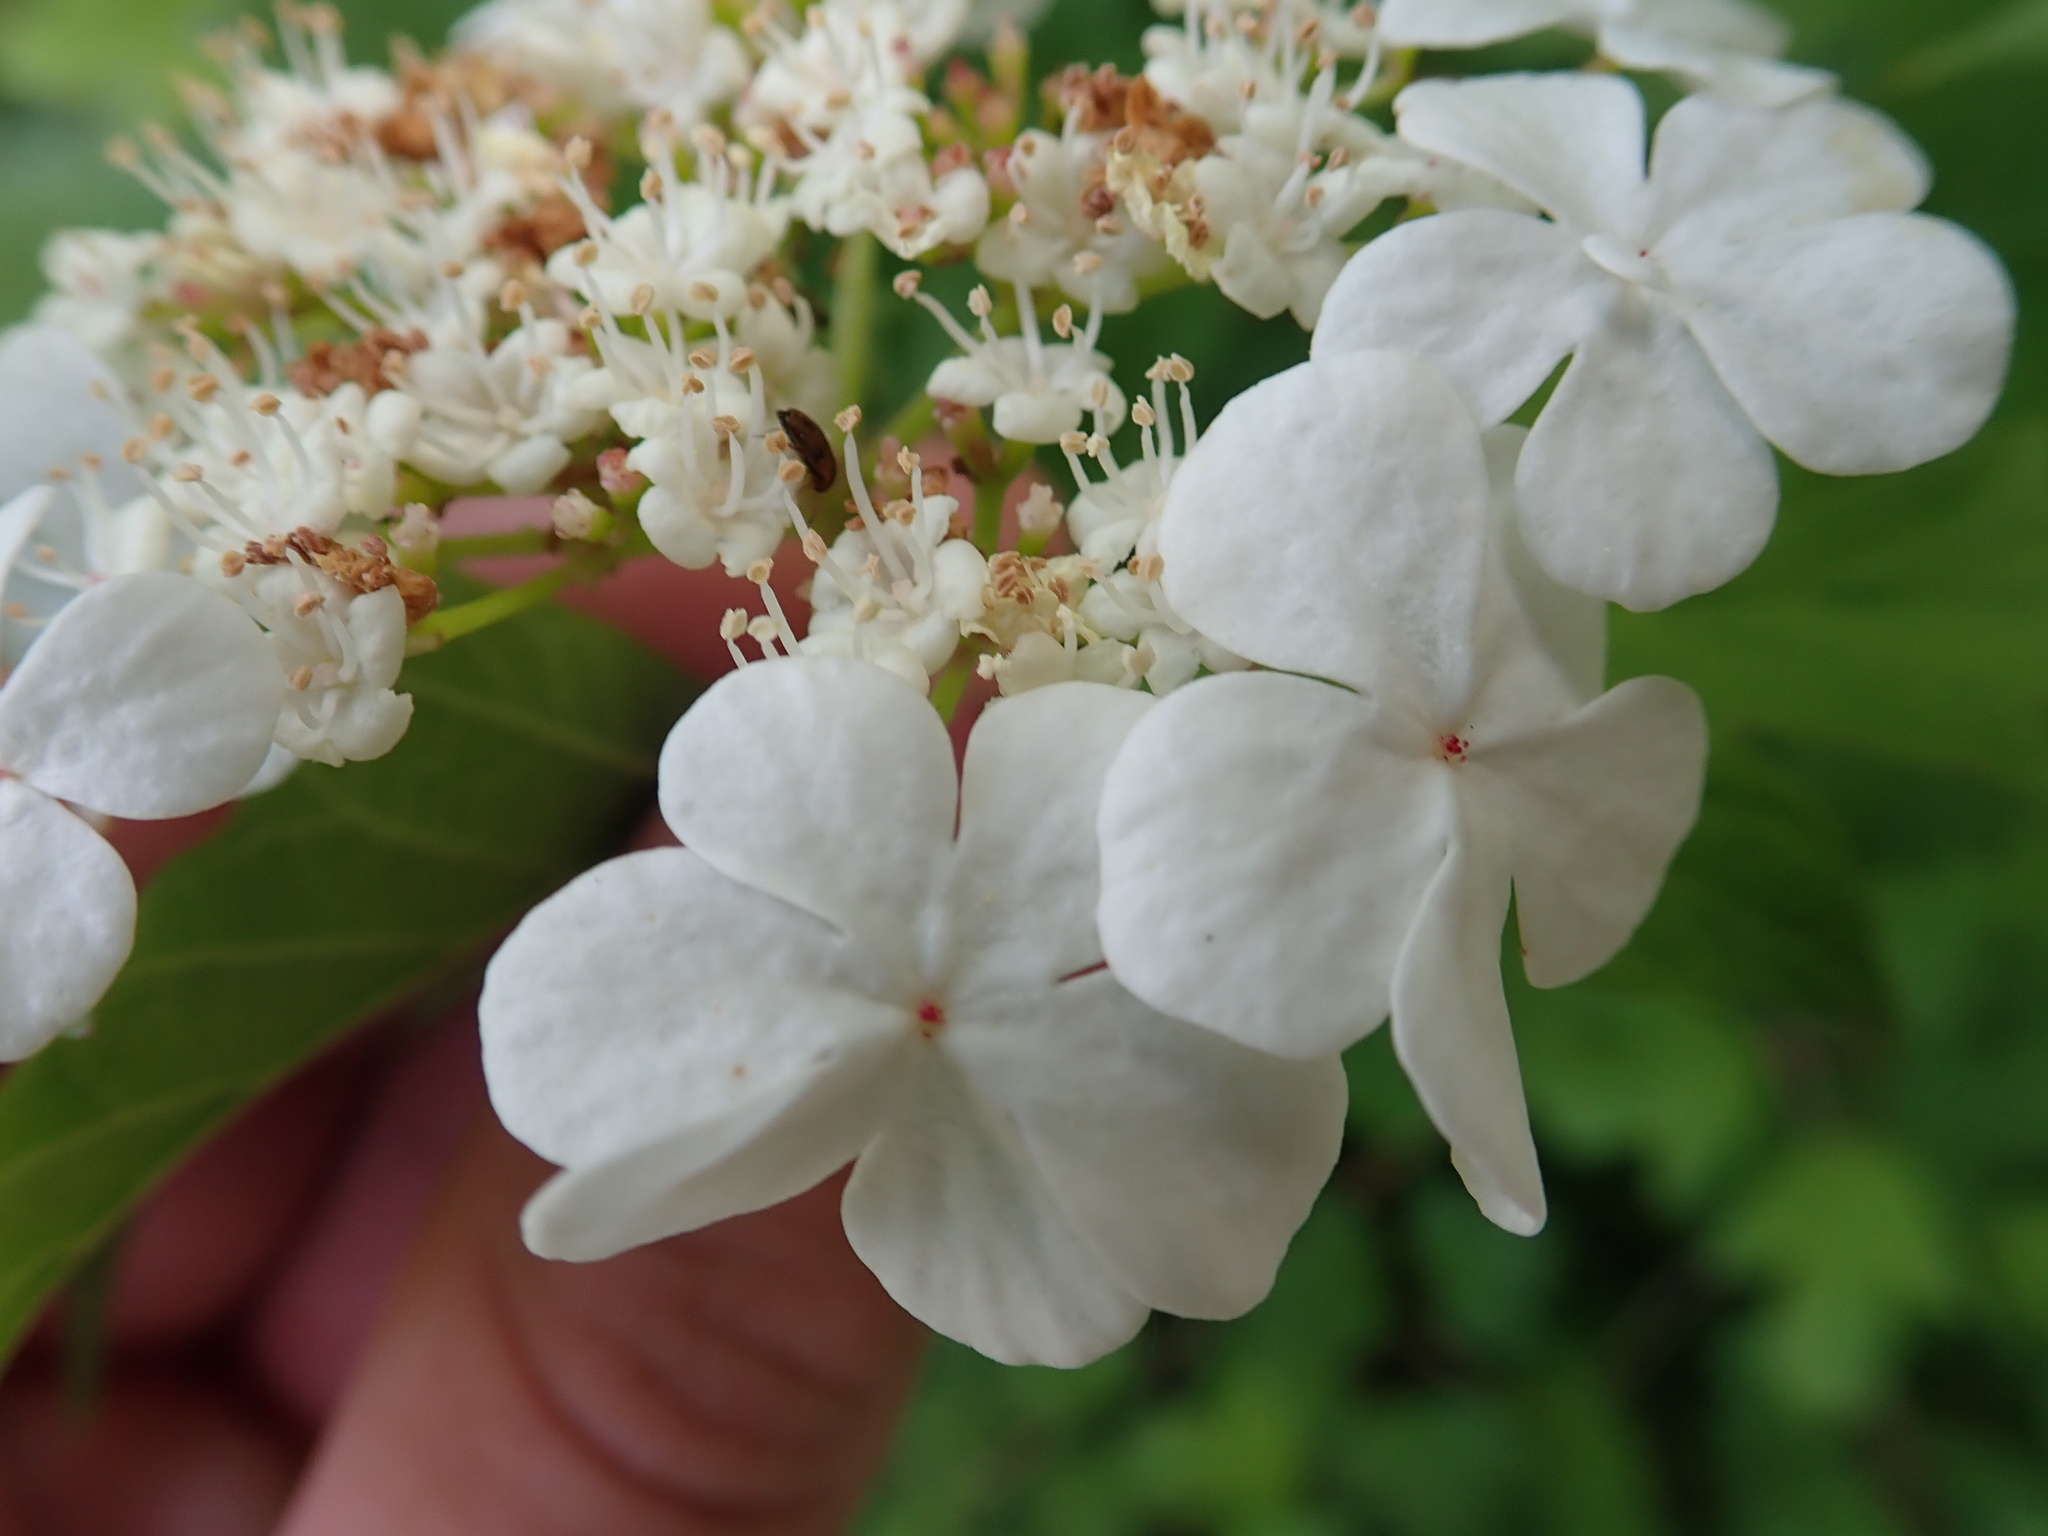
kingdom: Plantae
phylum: Tracheophyta
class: Magnoliopsida
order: Dipsacales
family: Viburnaceae
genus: Viburnum
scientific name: Viburnum opulus
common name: Guelder-rose
